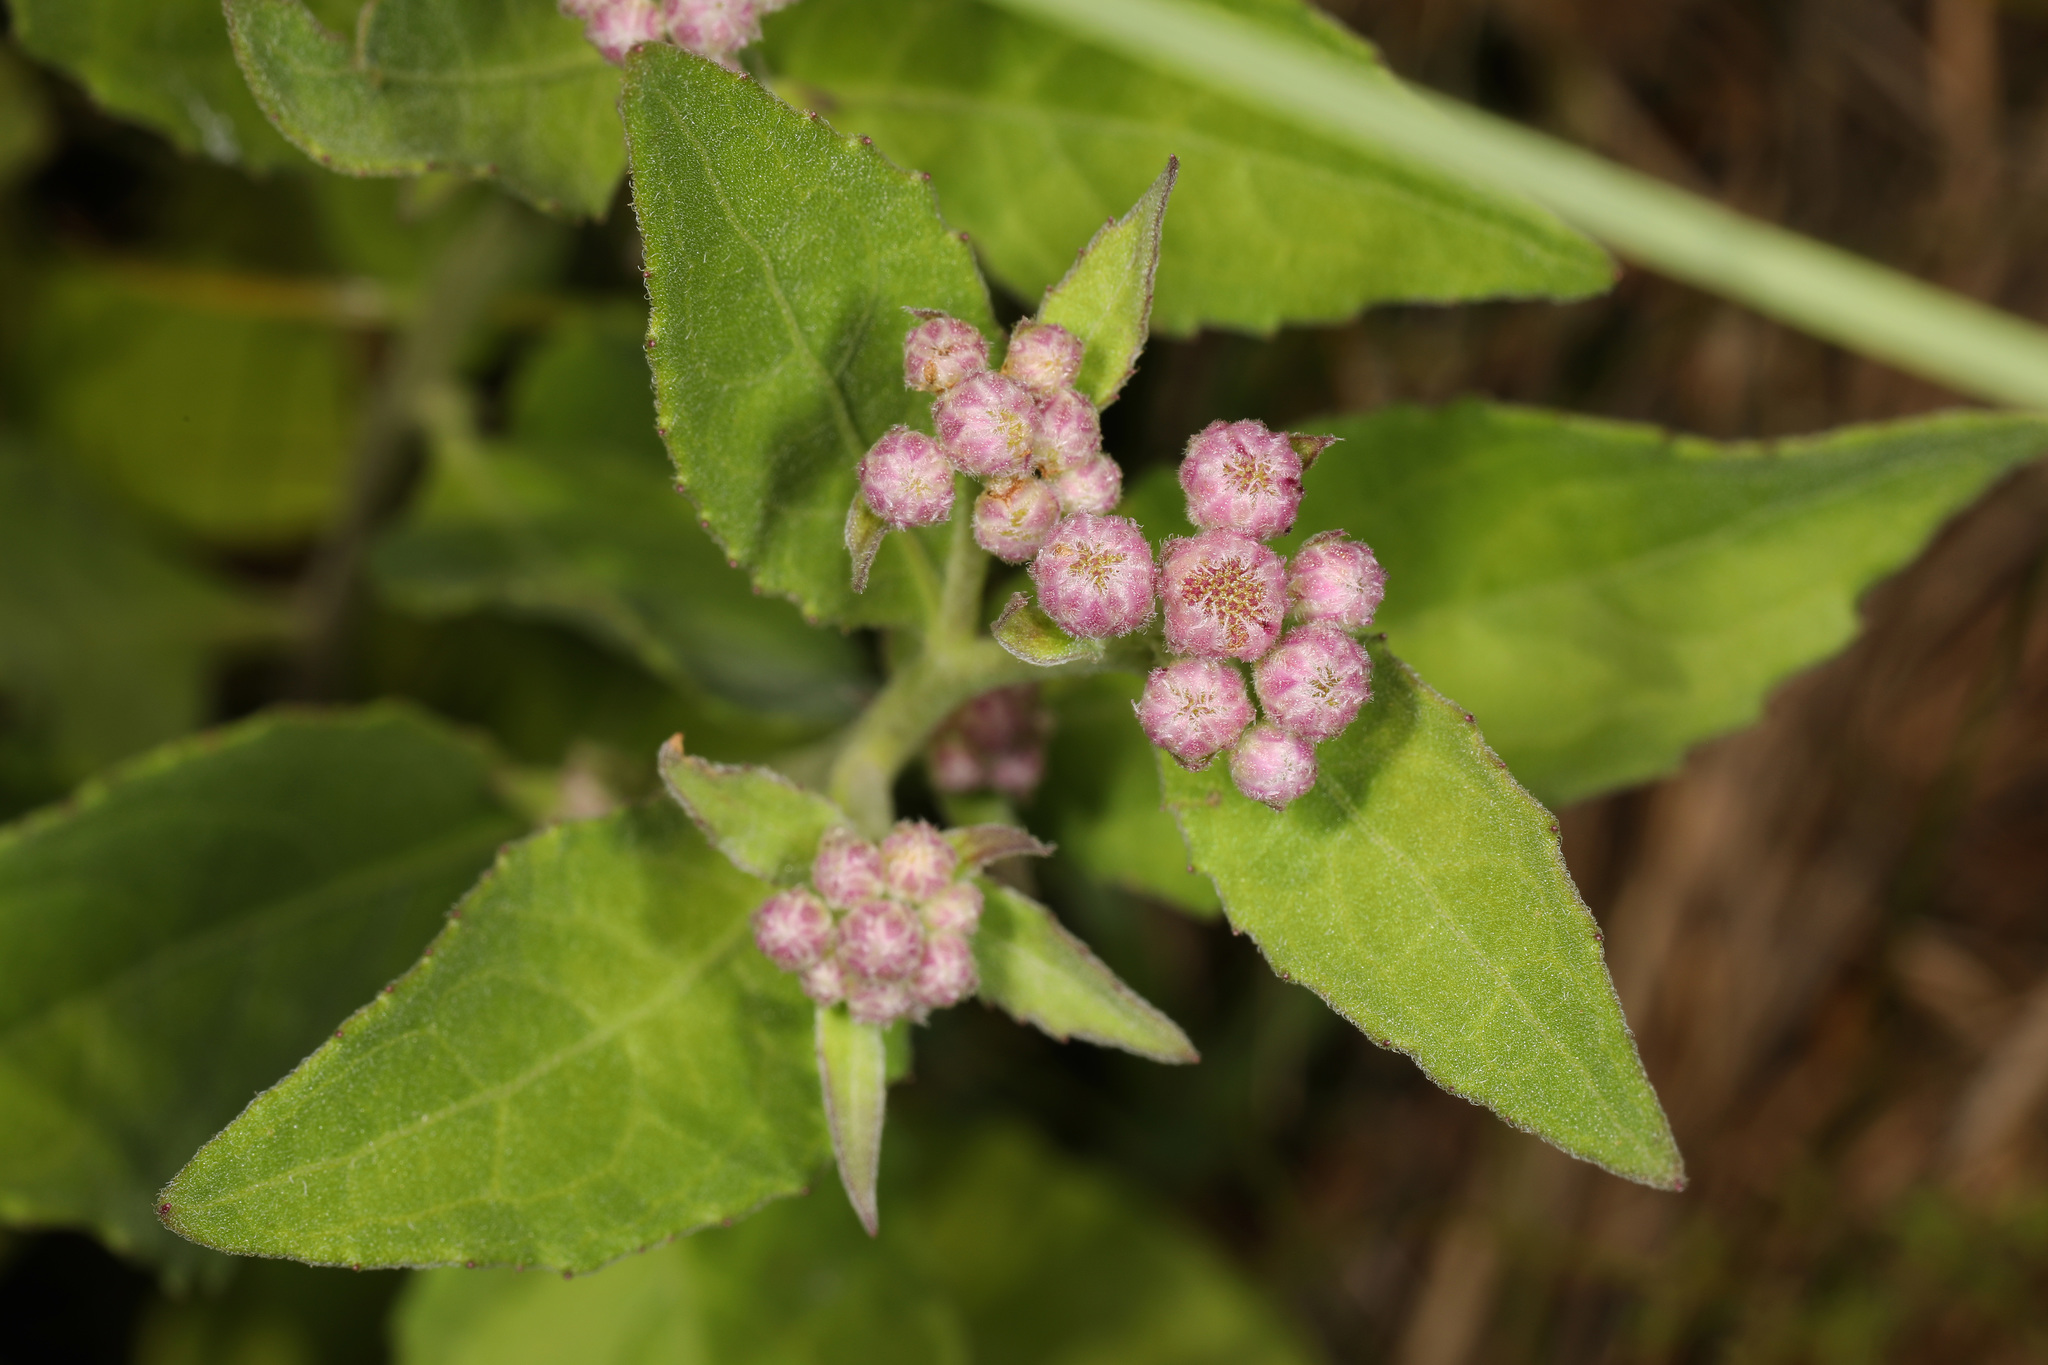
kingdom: Plantae
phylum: Tracheophyta
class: Magnoliopsida
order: Asterales
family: Asteraceae
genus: Pluchea
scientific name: Pluchea odorata
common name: Saltmarsh fleabane
